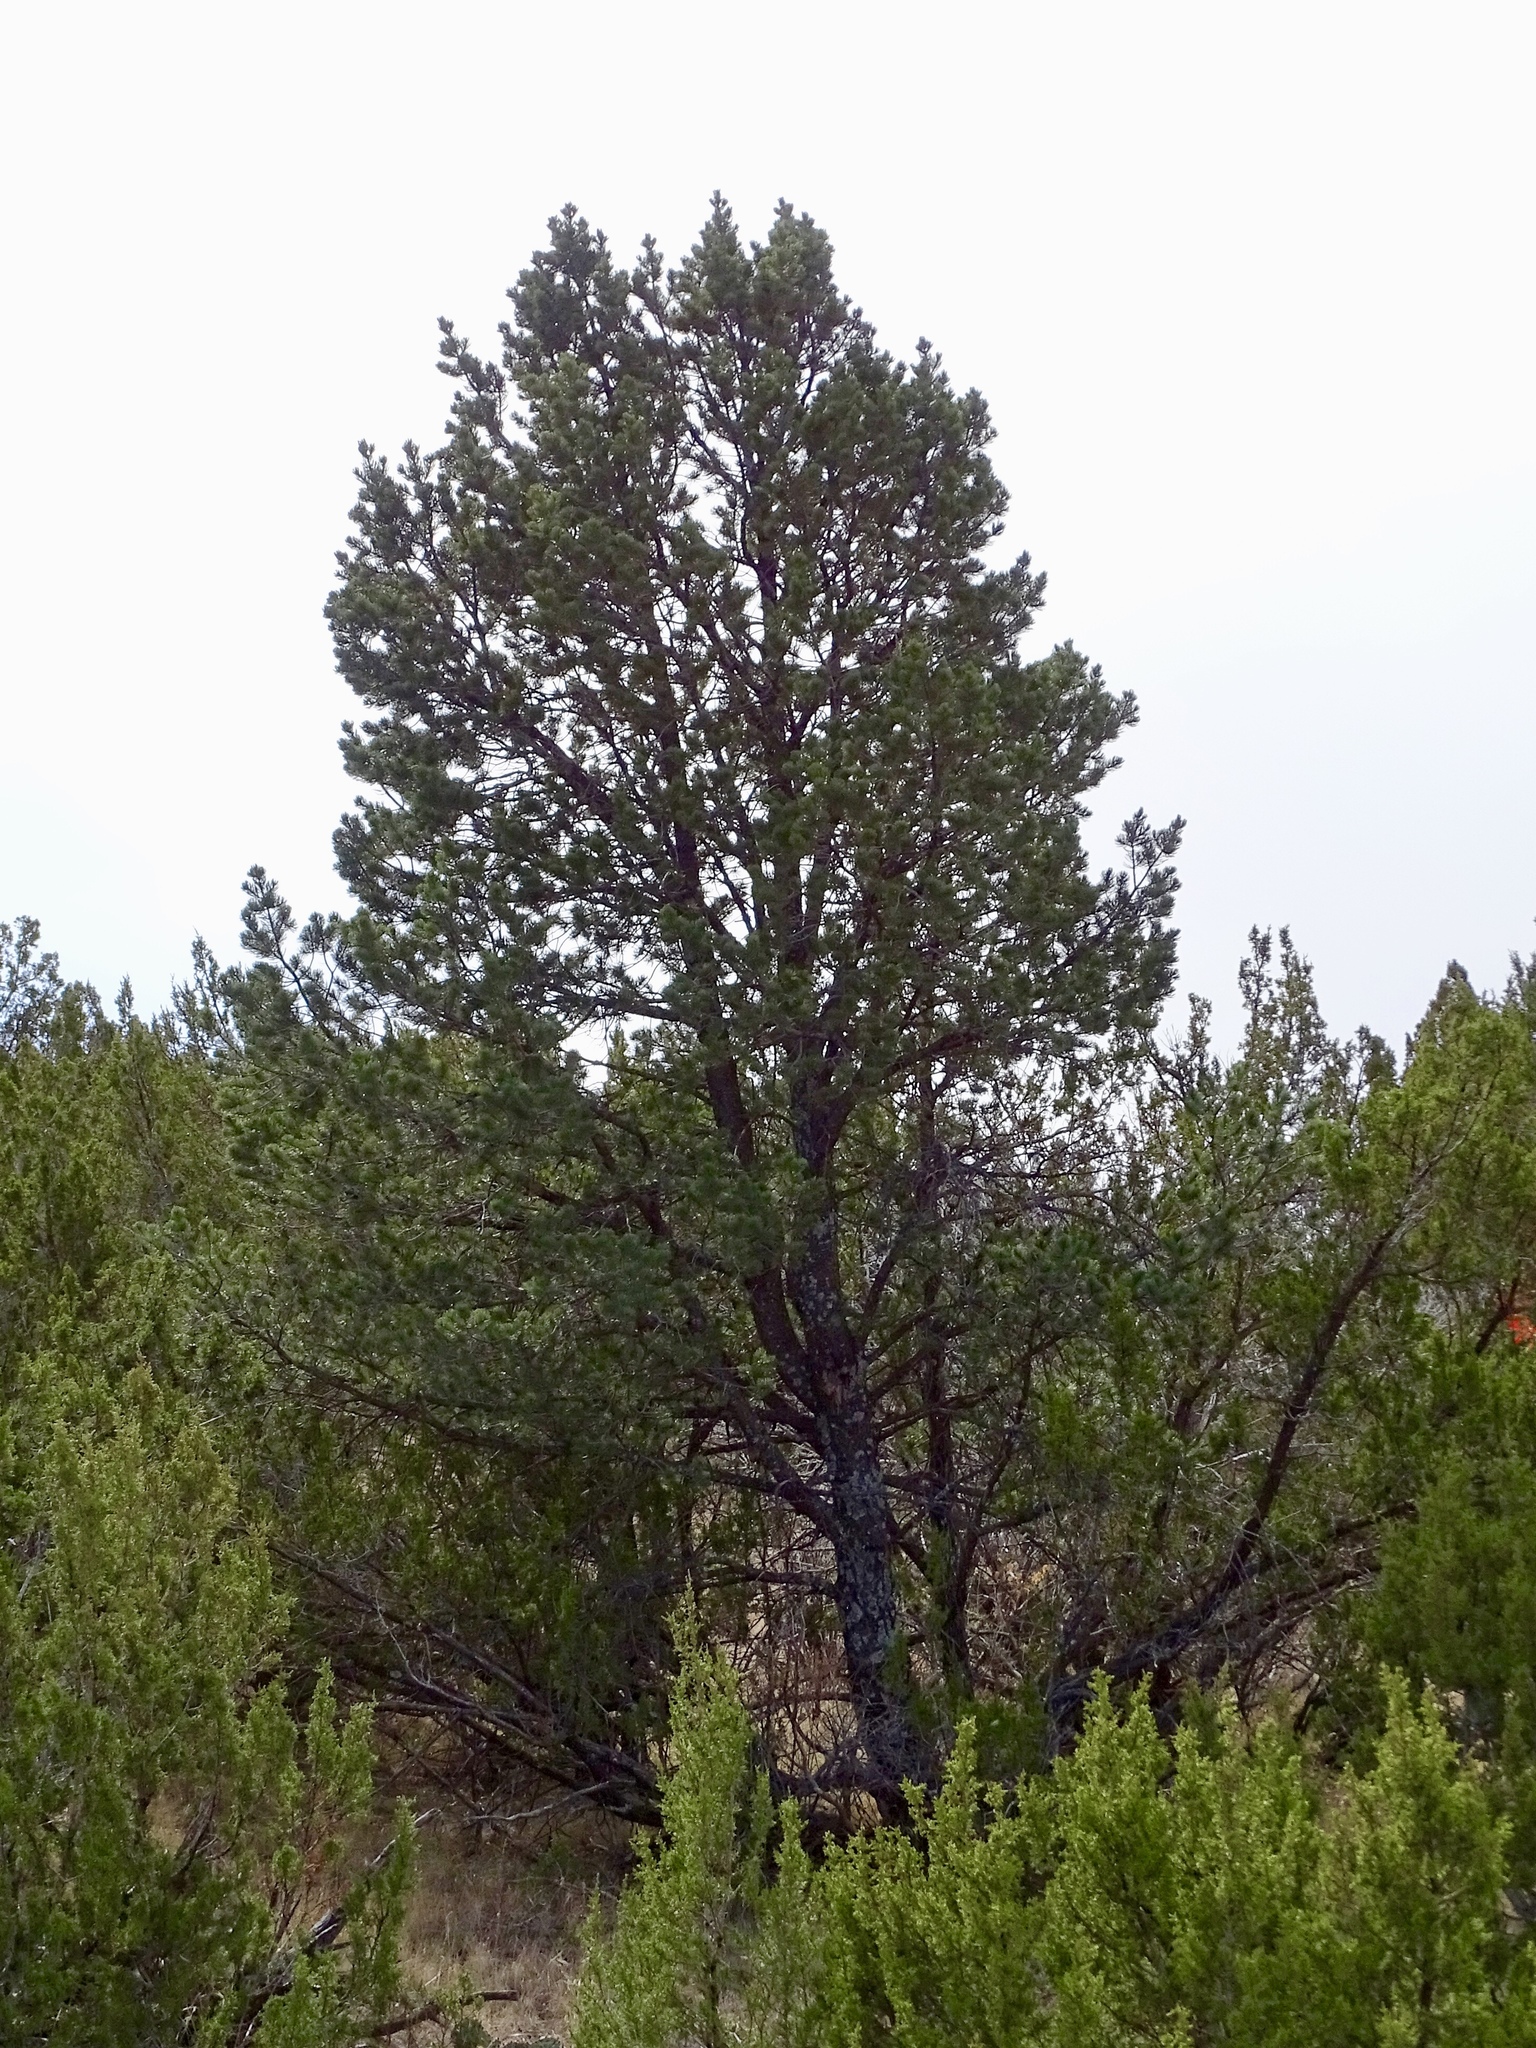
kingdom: Plantae
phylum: Tracheophyta
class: Pinopsida
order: Pinales
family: Pinaceae
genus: Pinus
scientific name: Pinus edulis
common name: Colorado pinyon
